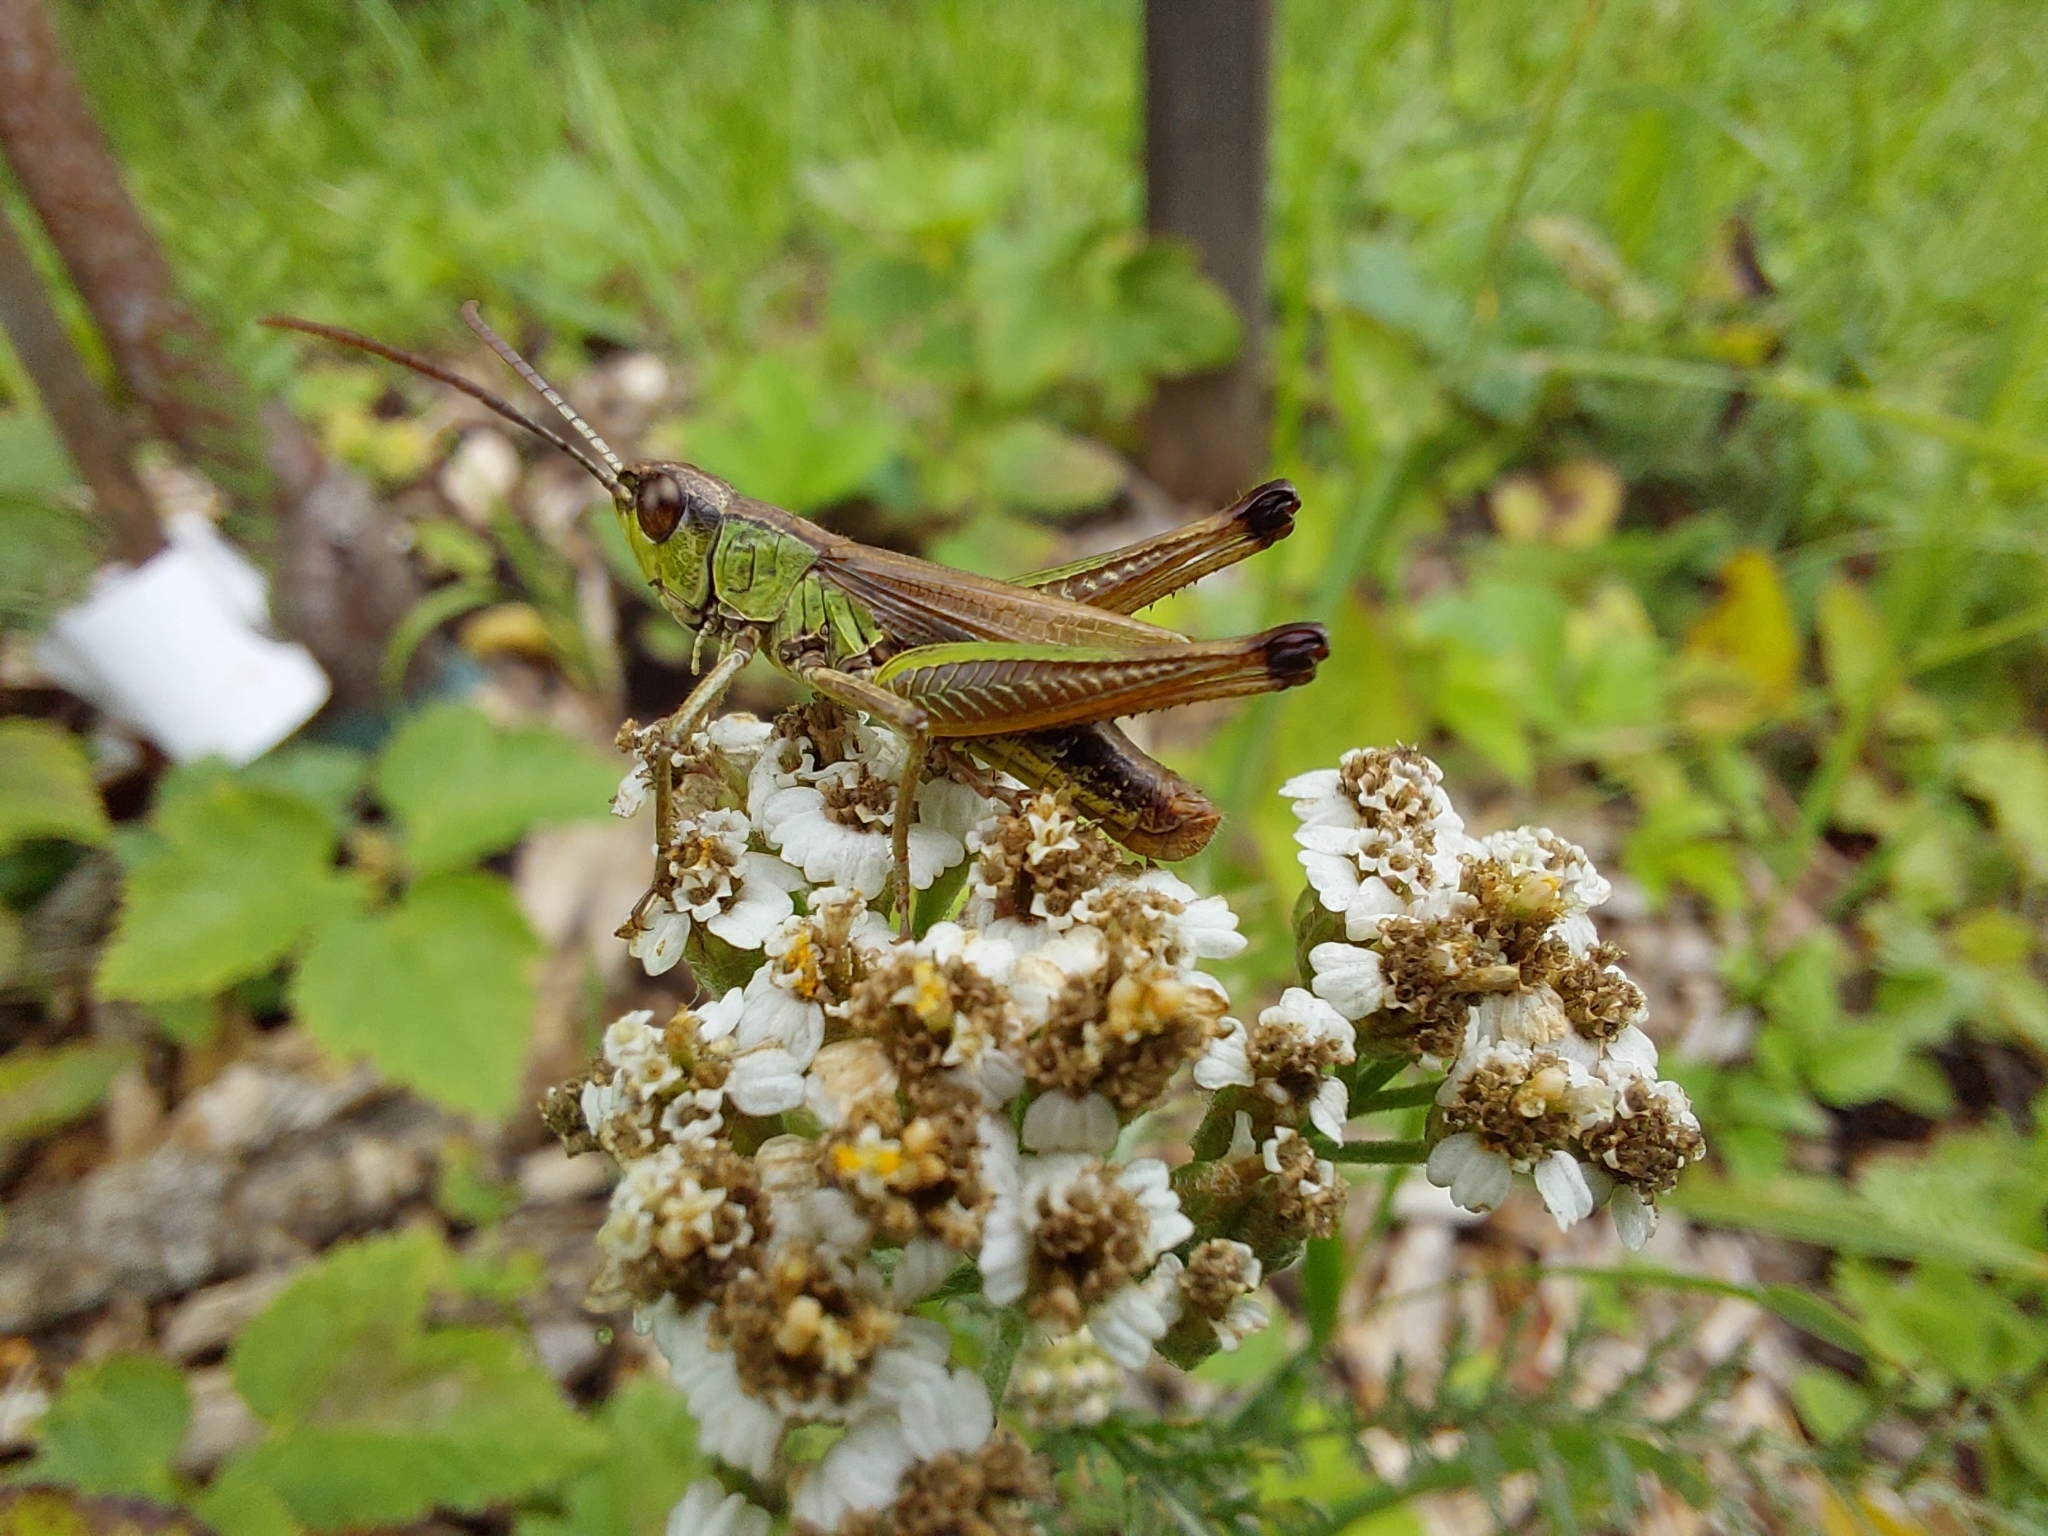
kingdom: Animalia
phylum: Arthropoda
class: Insecta
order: Orthoptera
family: Acrididae
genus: Pseudochorthippus
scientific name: Pseudochorthippus parallelus
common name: Meadow grasshopper
